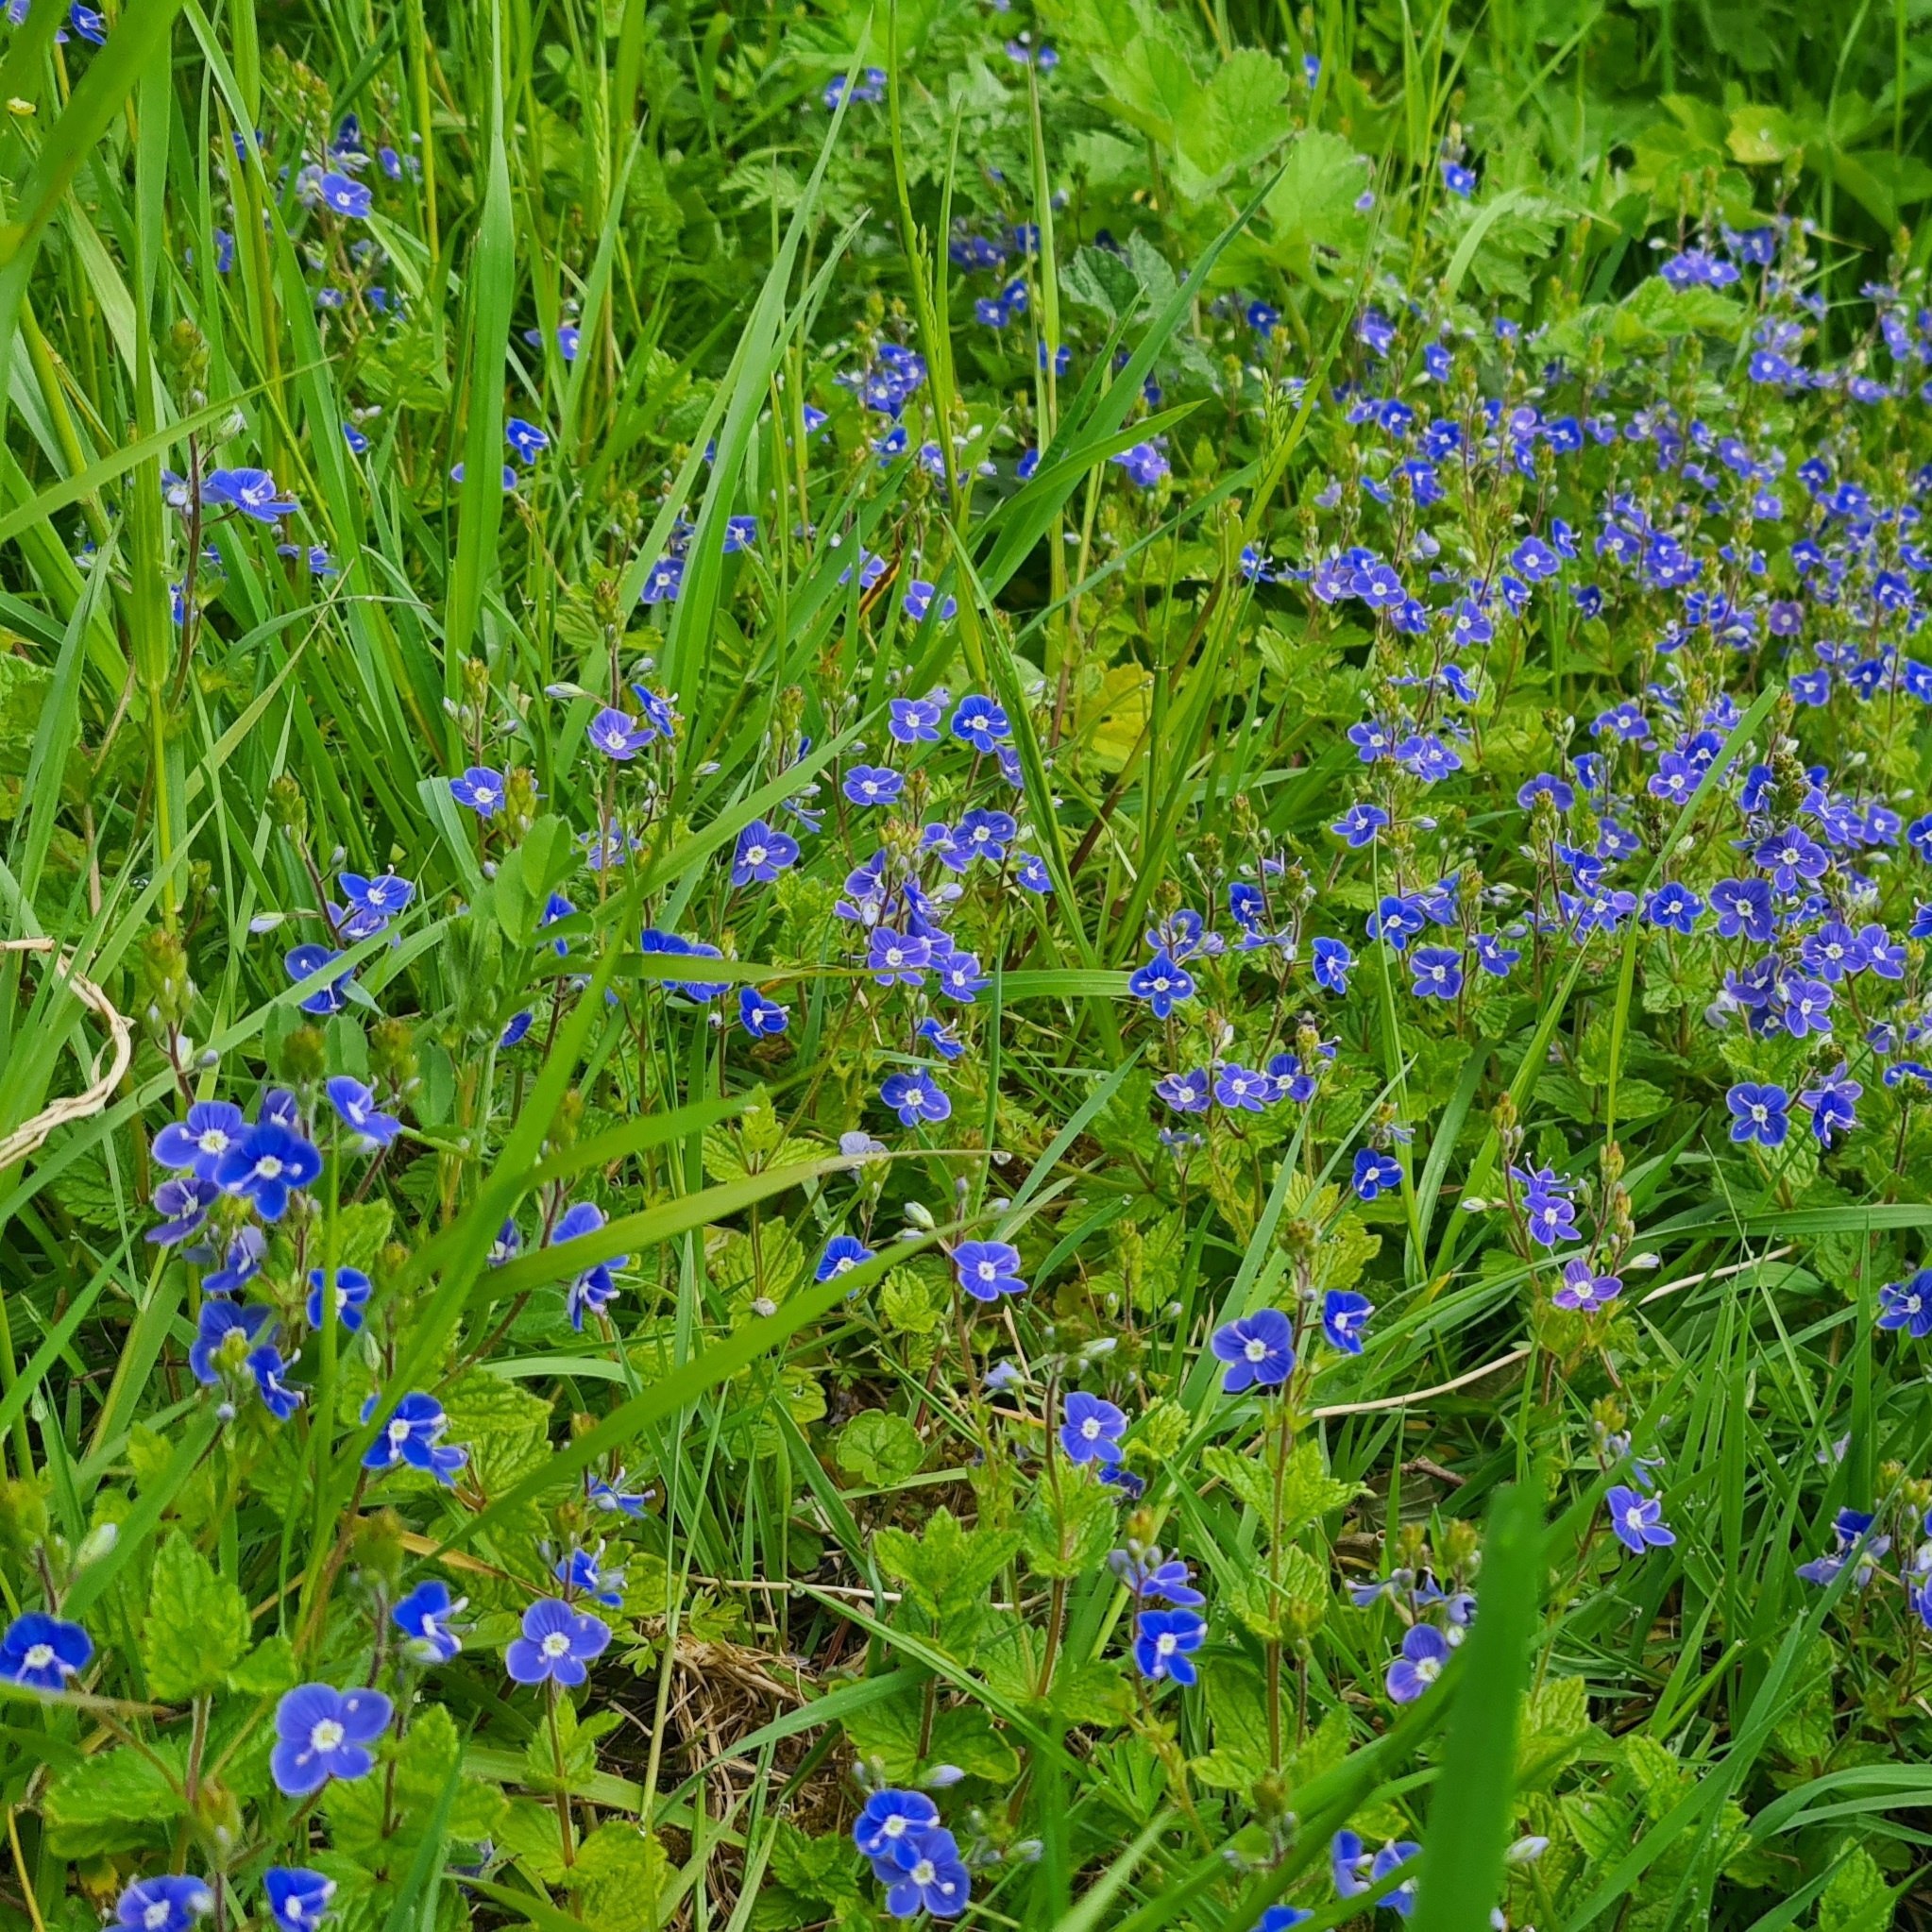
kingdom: Plantae
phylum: Tracheophyta
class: Magnoliopsida
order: Lamiales
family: Plantaginaceae
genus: Veronica
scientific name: Veronica chamaedrys
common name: Germander speedwell
